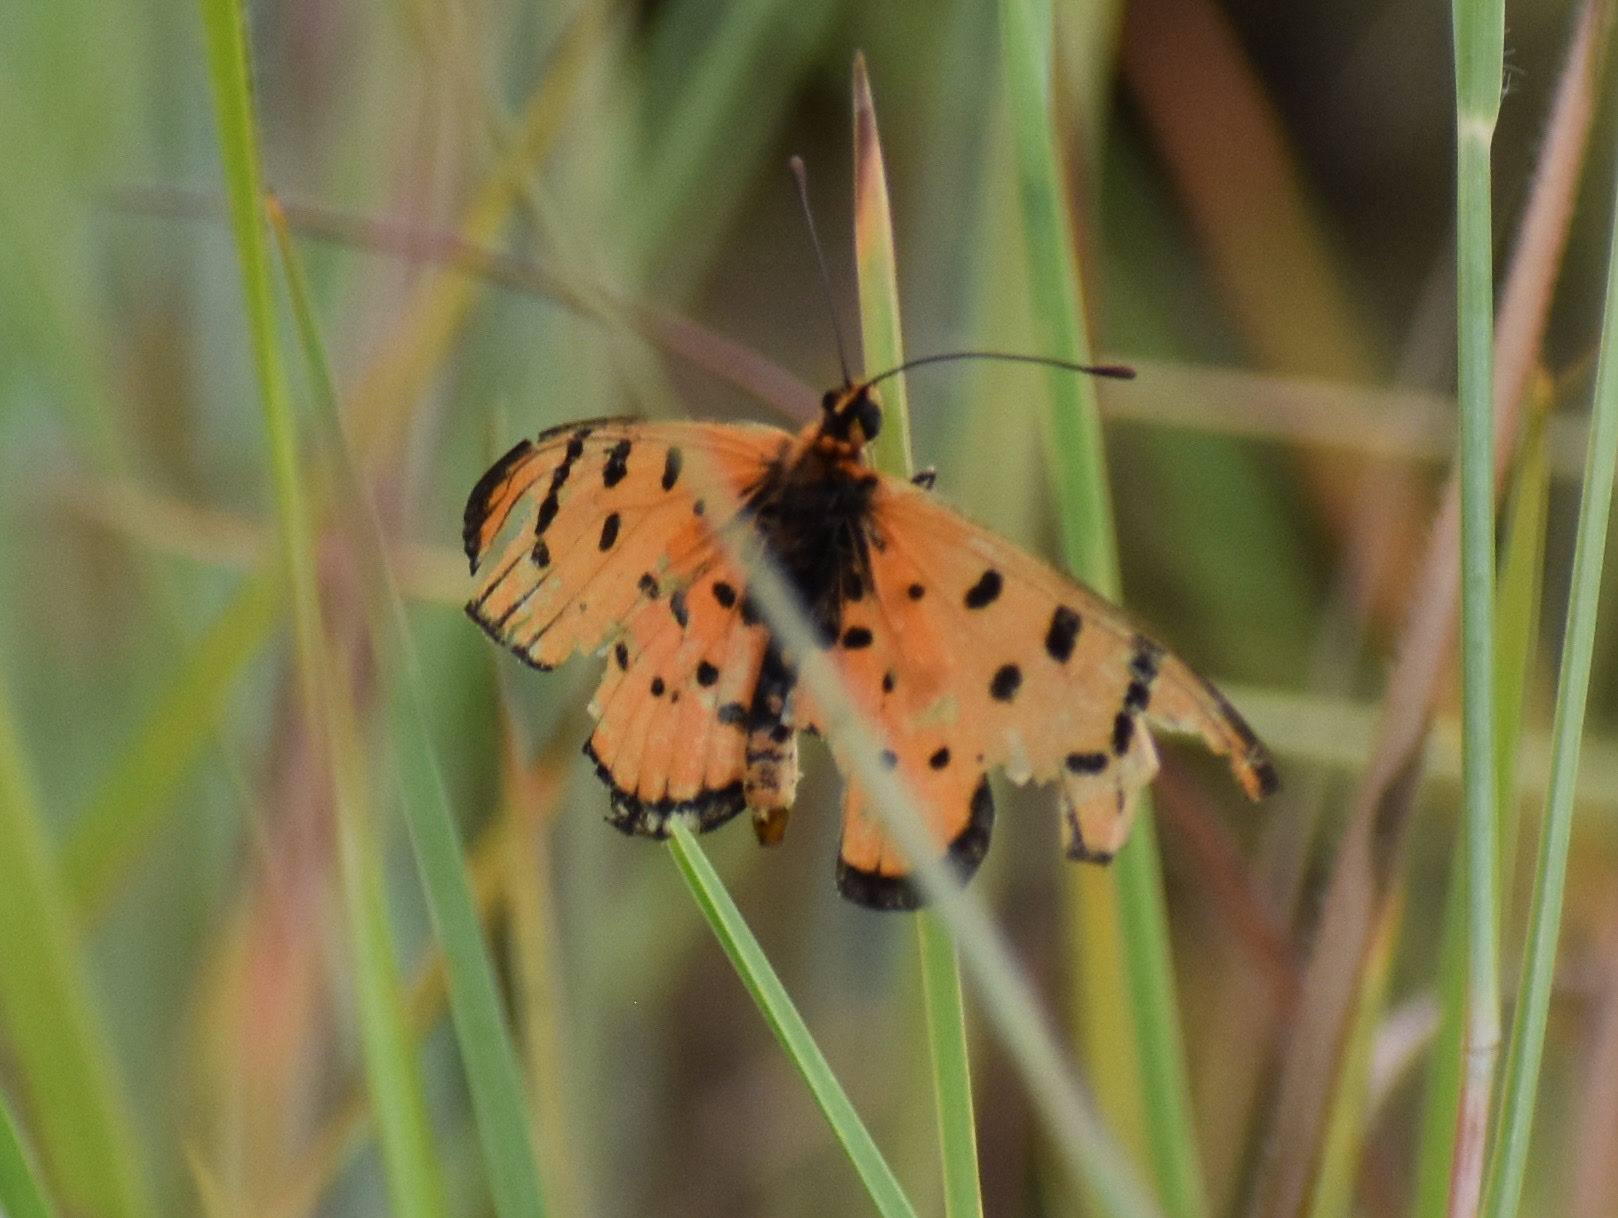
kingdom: Animalia
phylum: Arthropoda
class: Insecta
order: Lepidoptera
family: Nymphalidae
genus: Acraea
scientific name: Acraea rahira
